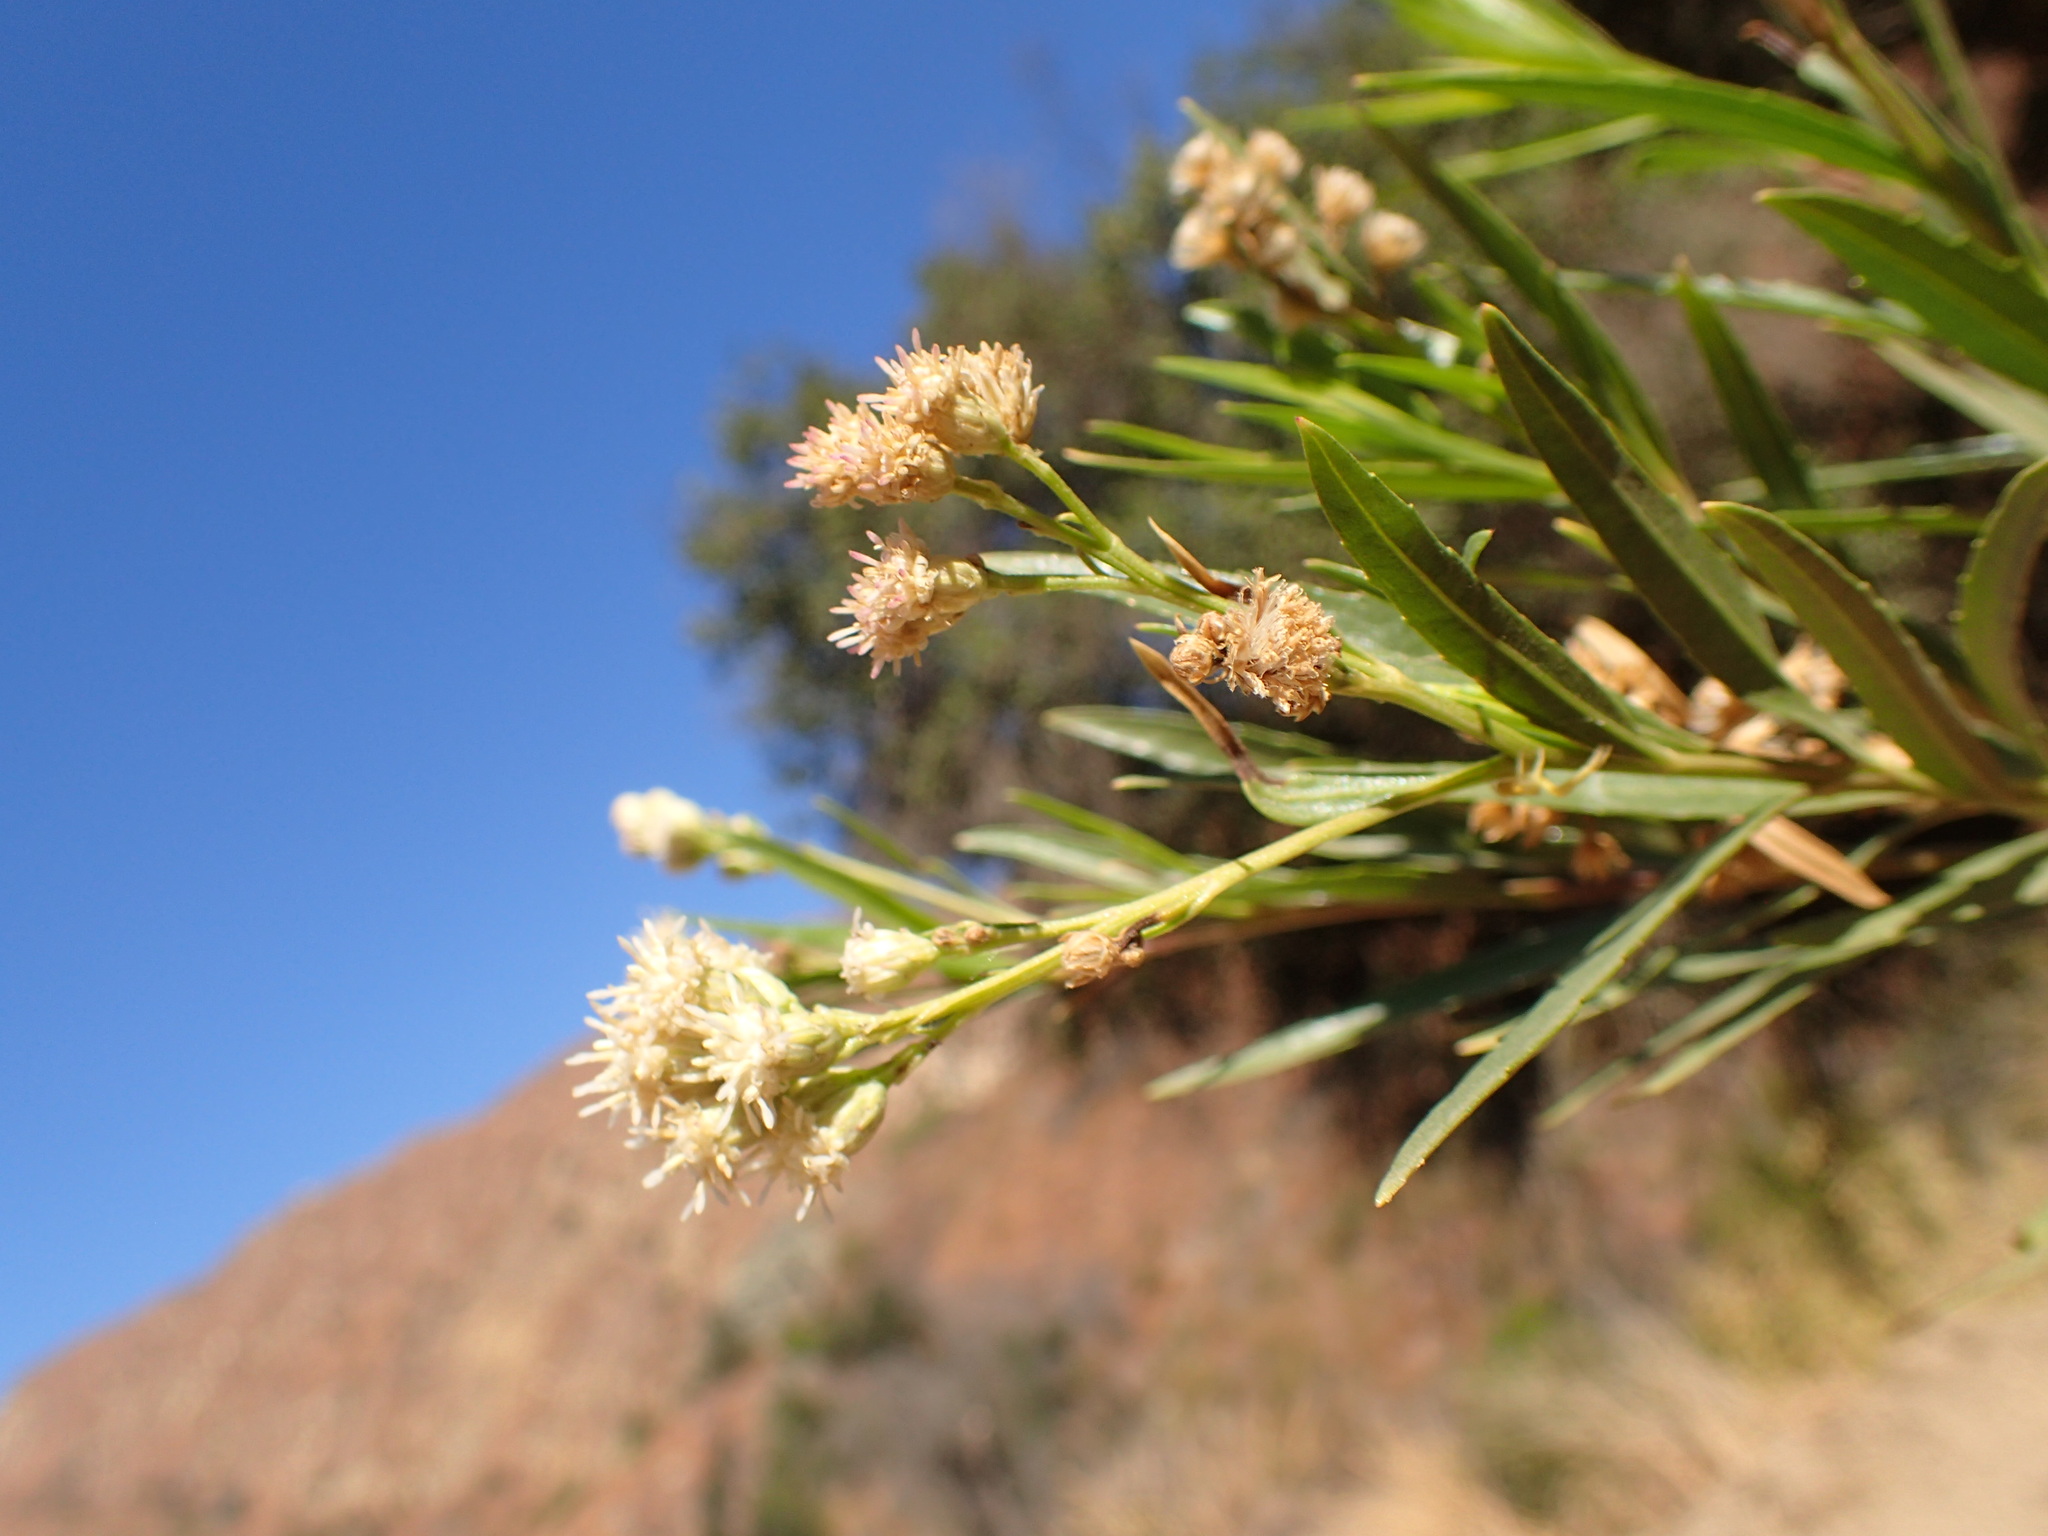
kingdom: Plantae
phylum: Tracheophyta
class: Magnoliopsida
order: Asterales
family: Asteraceae
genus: Baccharis
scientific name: Baccharis salicifolia
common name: Sticky baccharis
